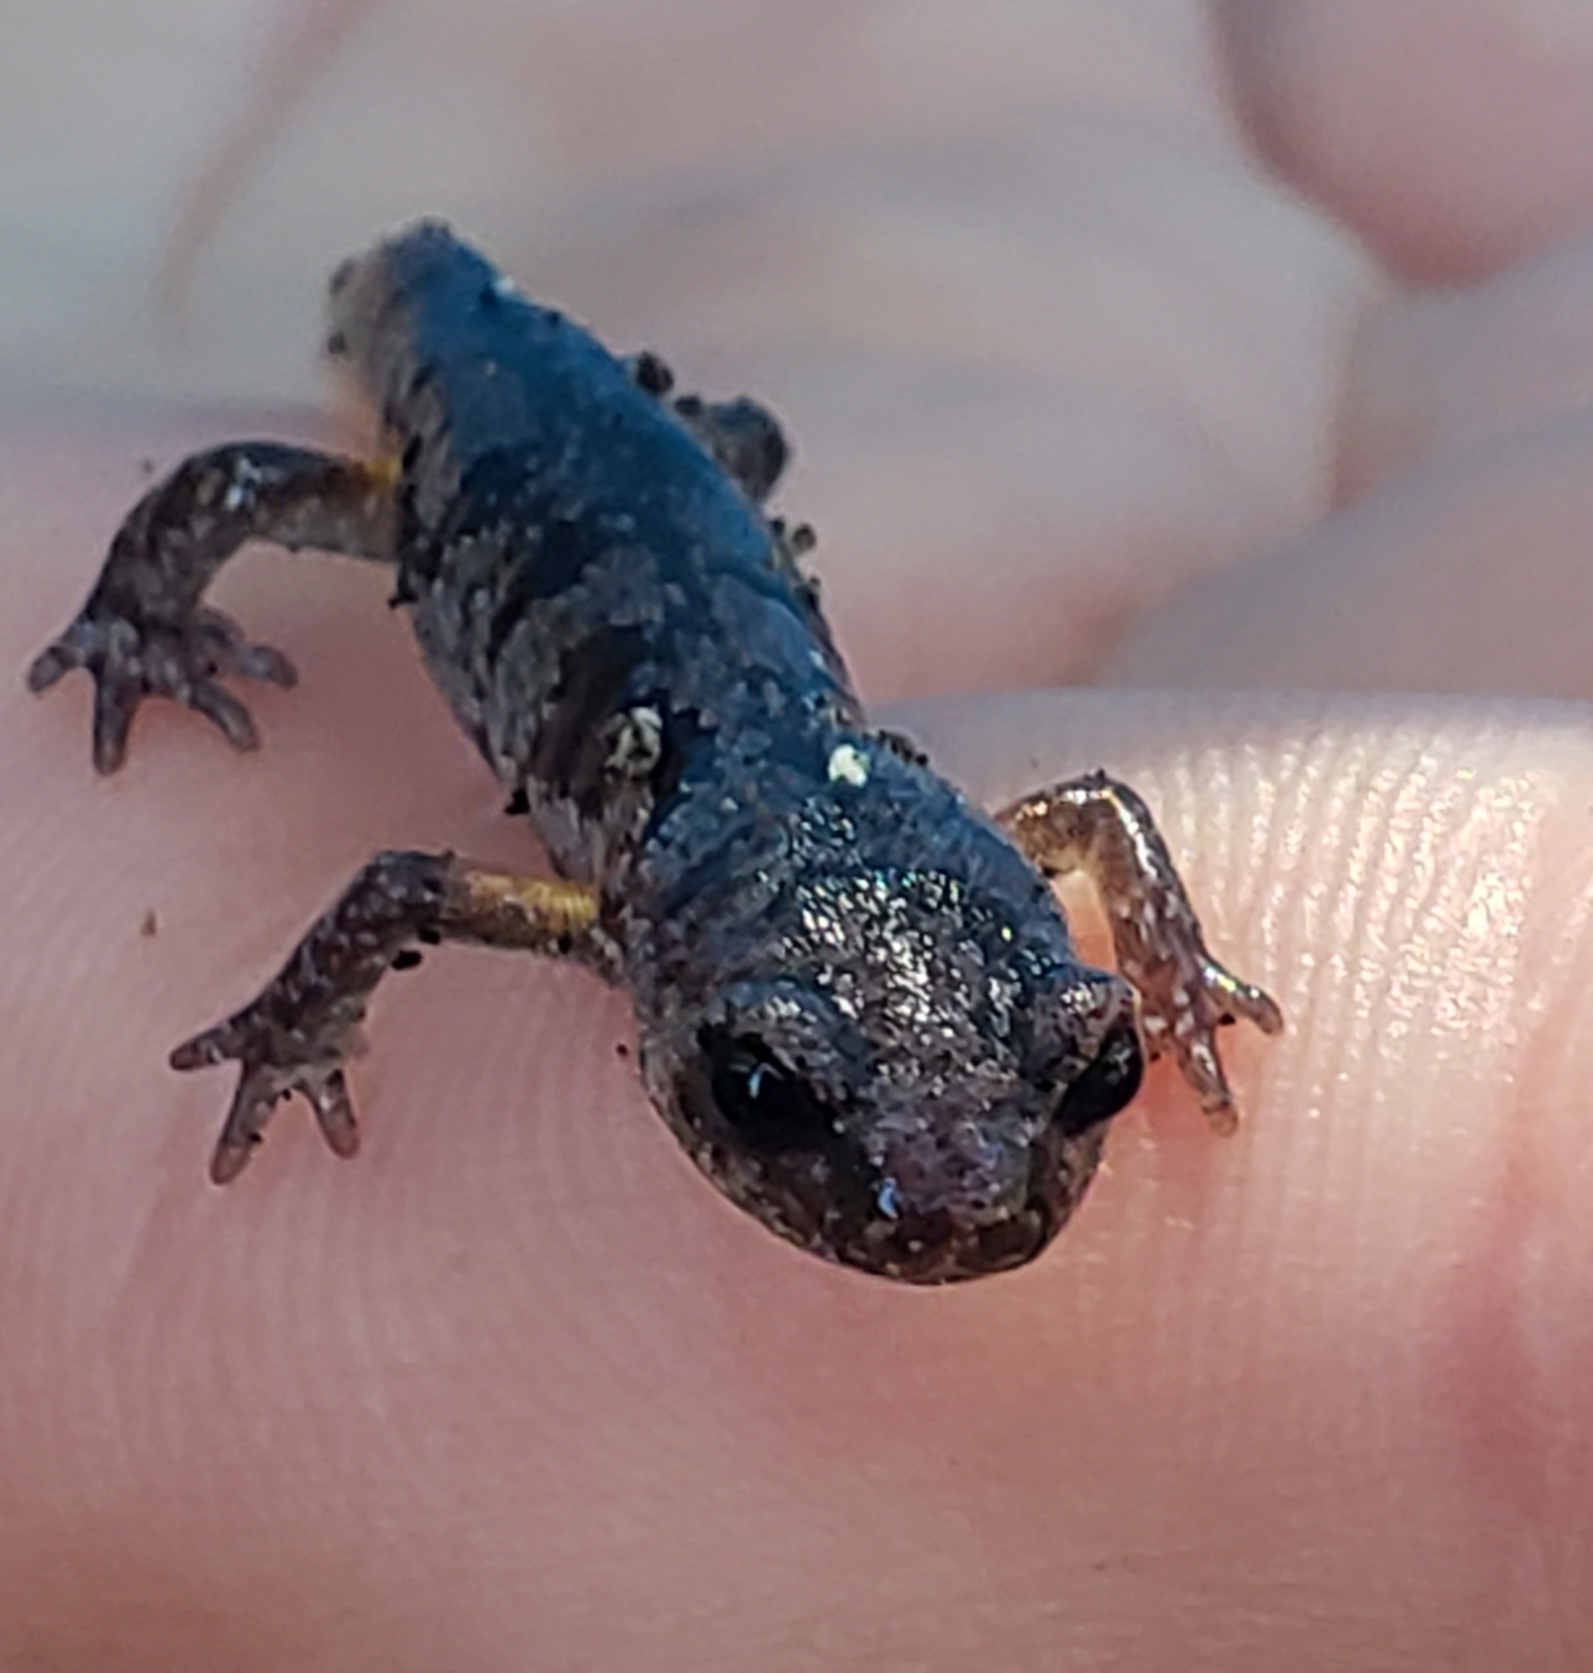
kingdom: Animalia
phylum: Chordata
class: Amphibia
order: Caudata
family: Plethodontidae
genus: Ensatina
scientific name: Ensatina eschscholtzii
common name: Ensatina
